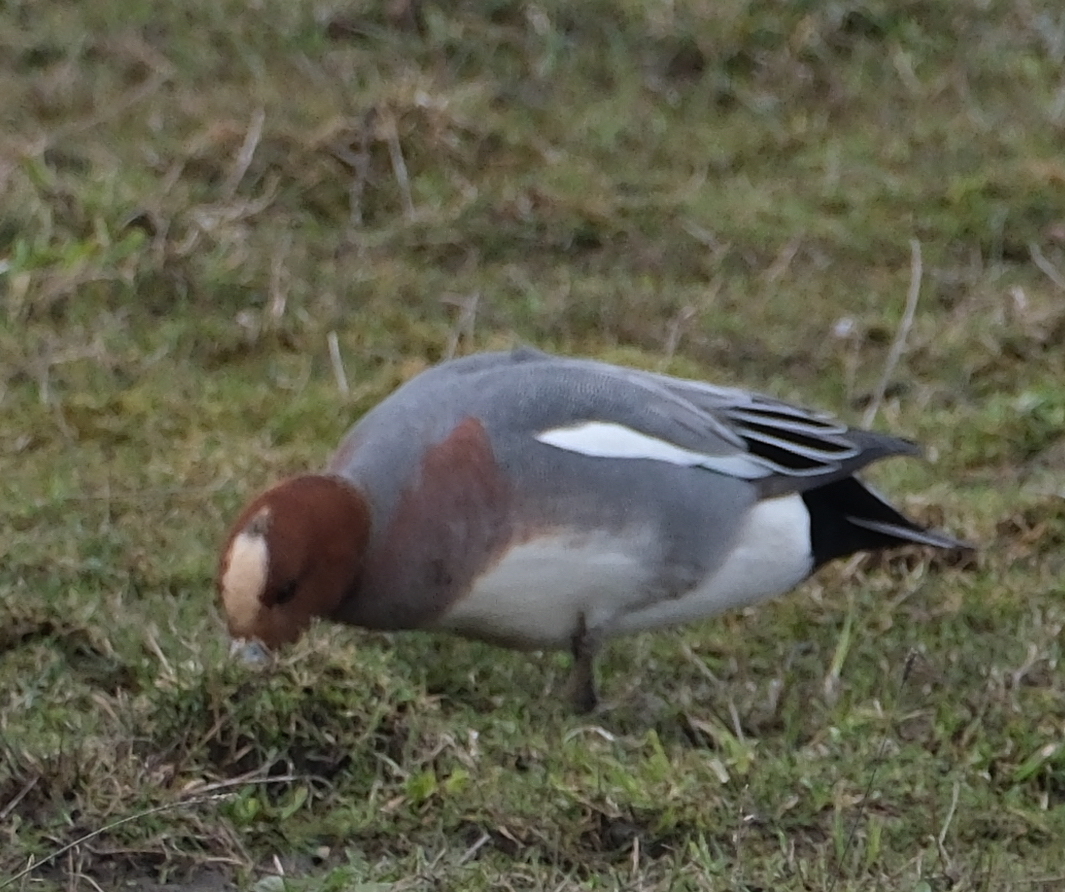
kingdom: Animalia
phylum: Chordata
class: Aves
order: Anseriformes
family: Anatidae
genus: Mareca
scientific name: Mareca penelope
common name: Eurasian wigeon
